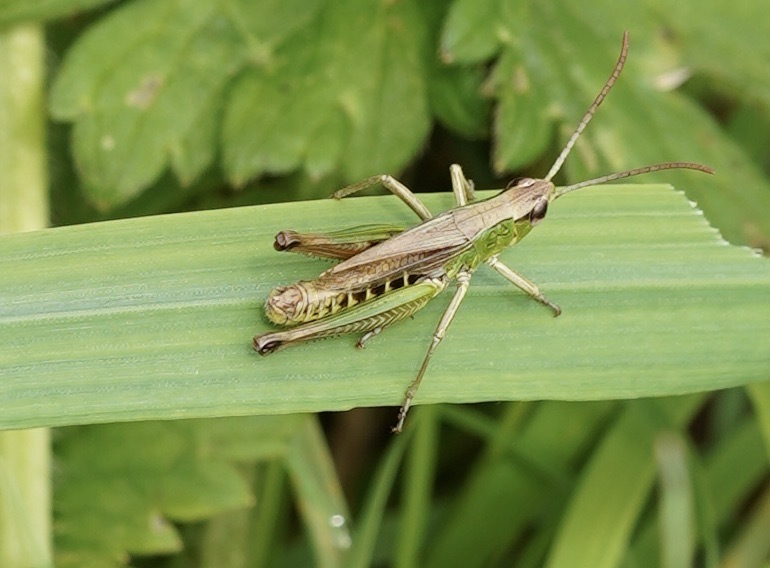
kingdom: Animalia
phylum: Arthropoda
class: Insecta
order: Orthoptera
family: Acrididae
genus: Pseudochorthippus
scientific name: Pseudochorthippus parallelus
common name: Meadow grasshopper
